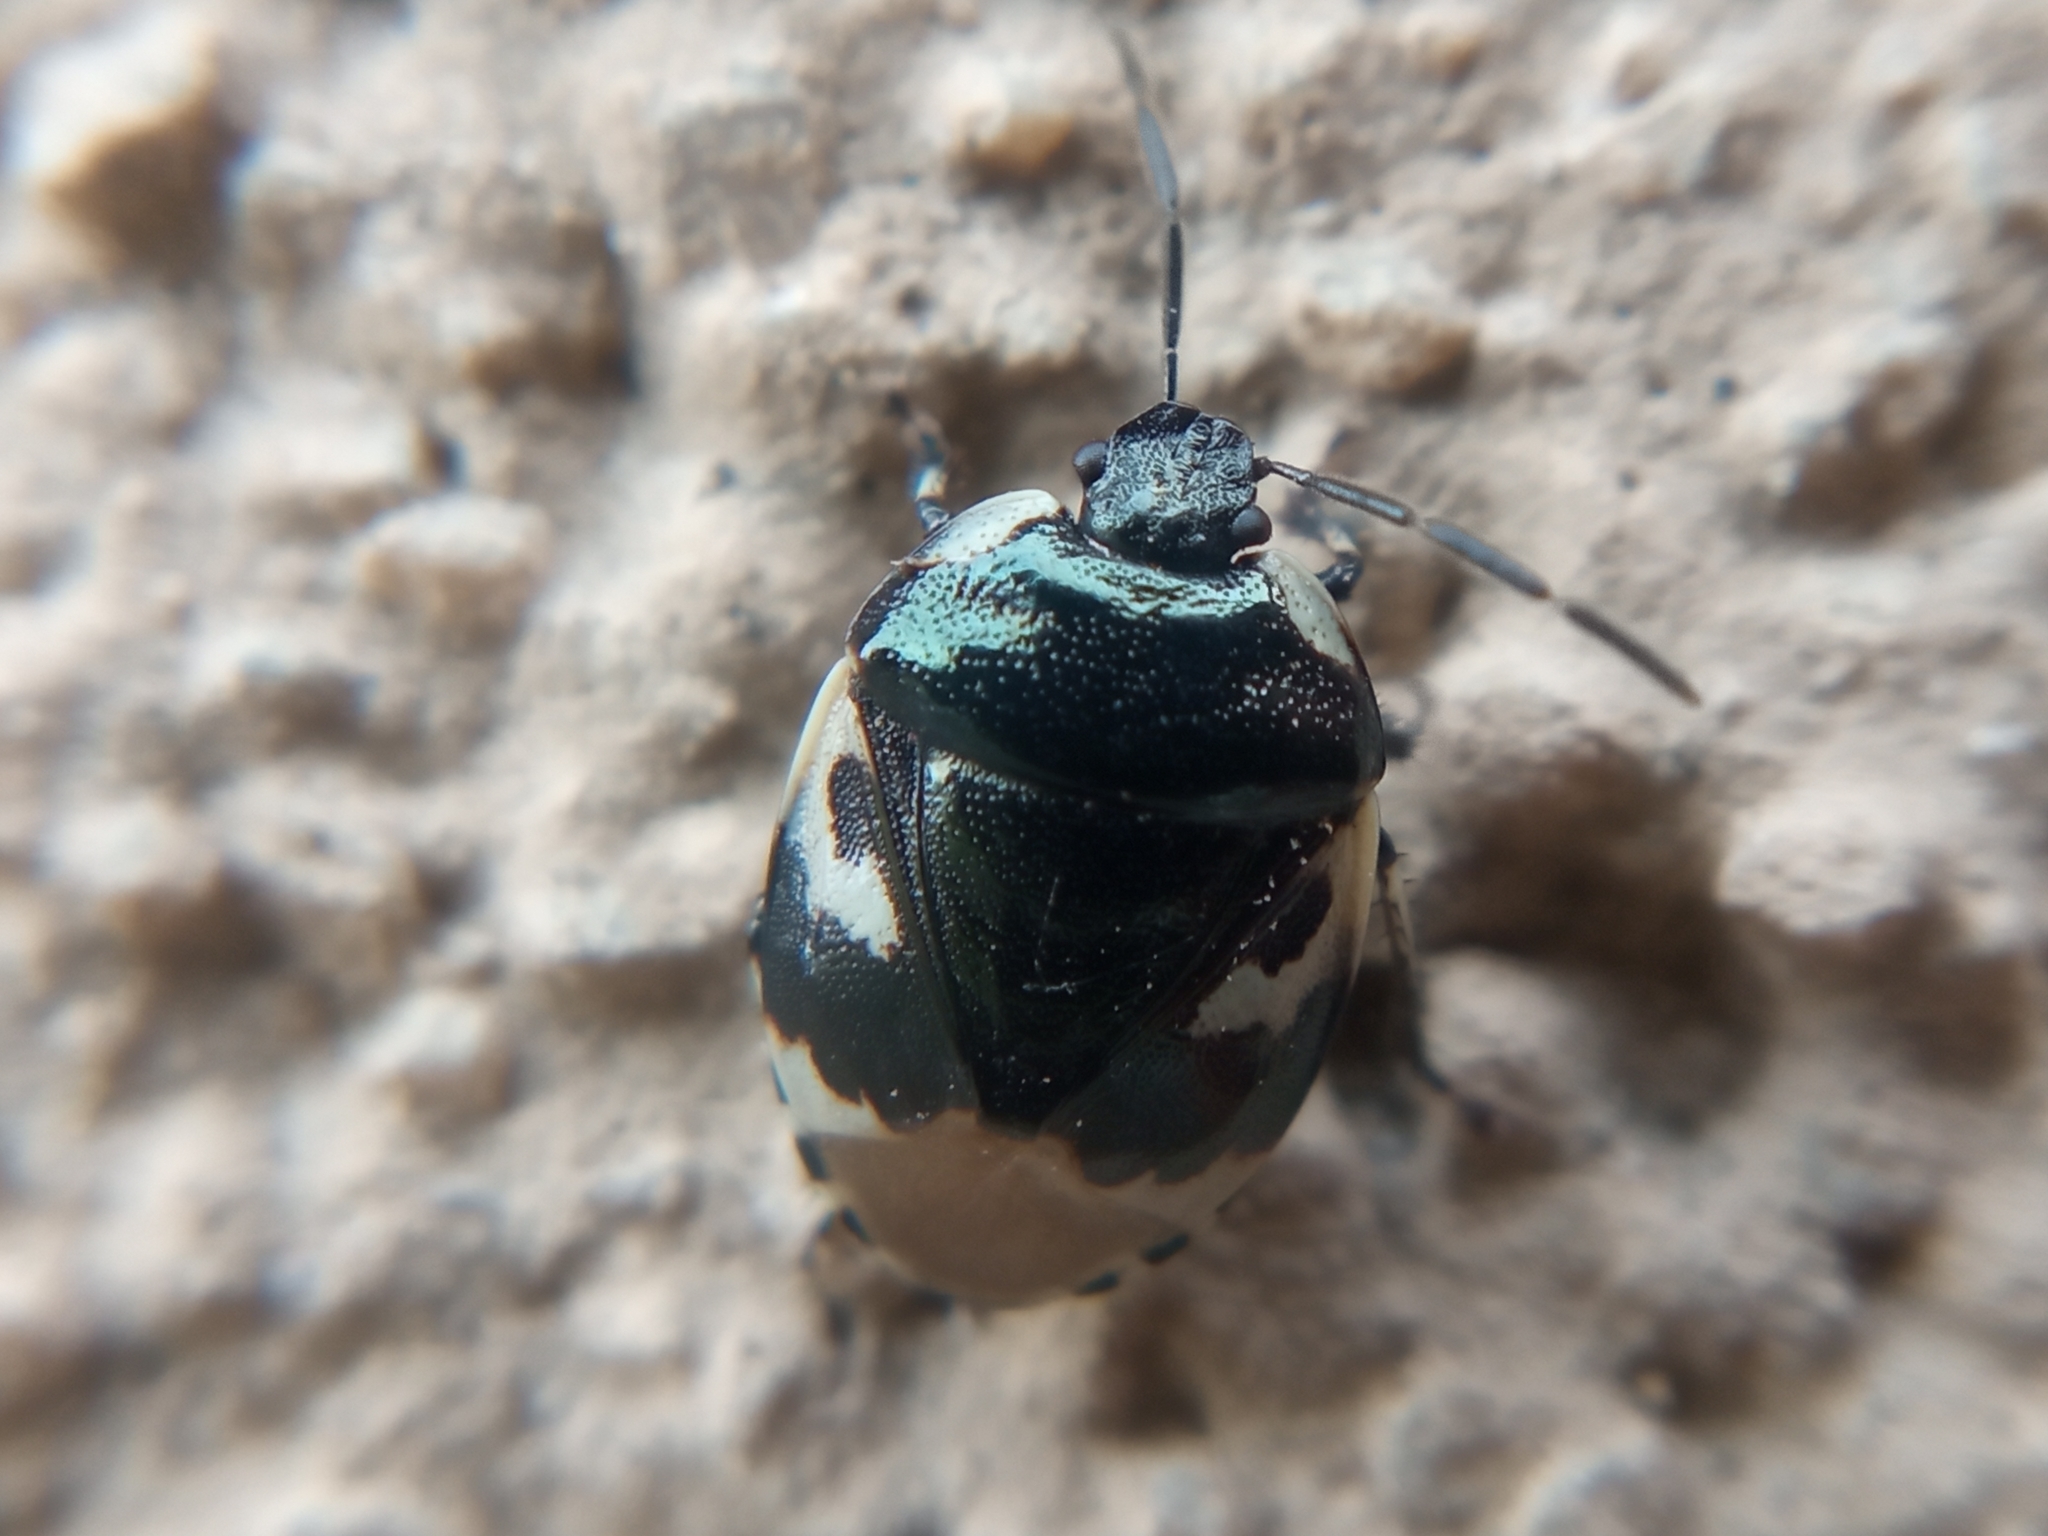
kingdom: Animalia
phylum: Arthropoda
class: Insecta
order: Hemiptera
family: Cydnidae
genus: Tritomegas
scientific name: Tritomegas bicolor
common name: Pied shieldbug
